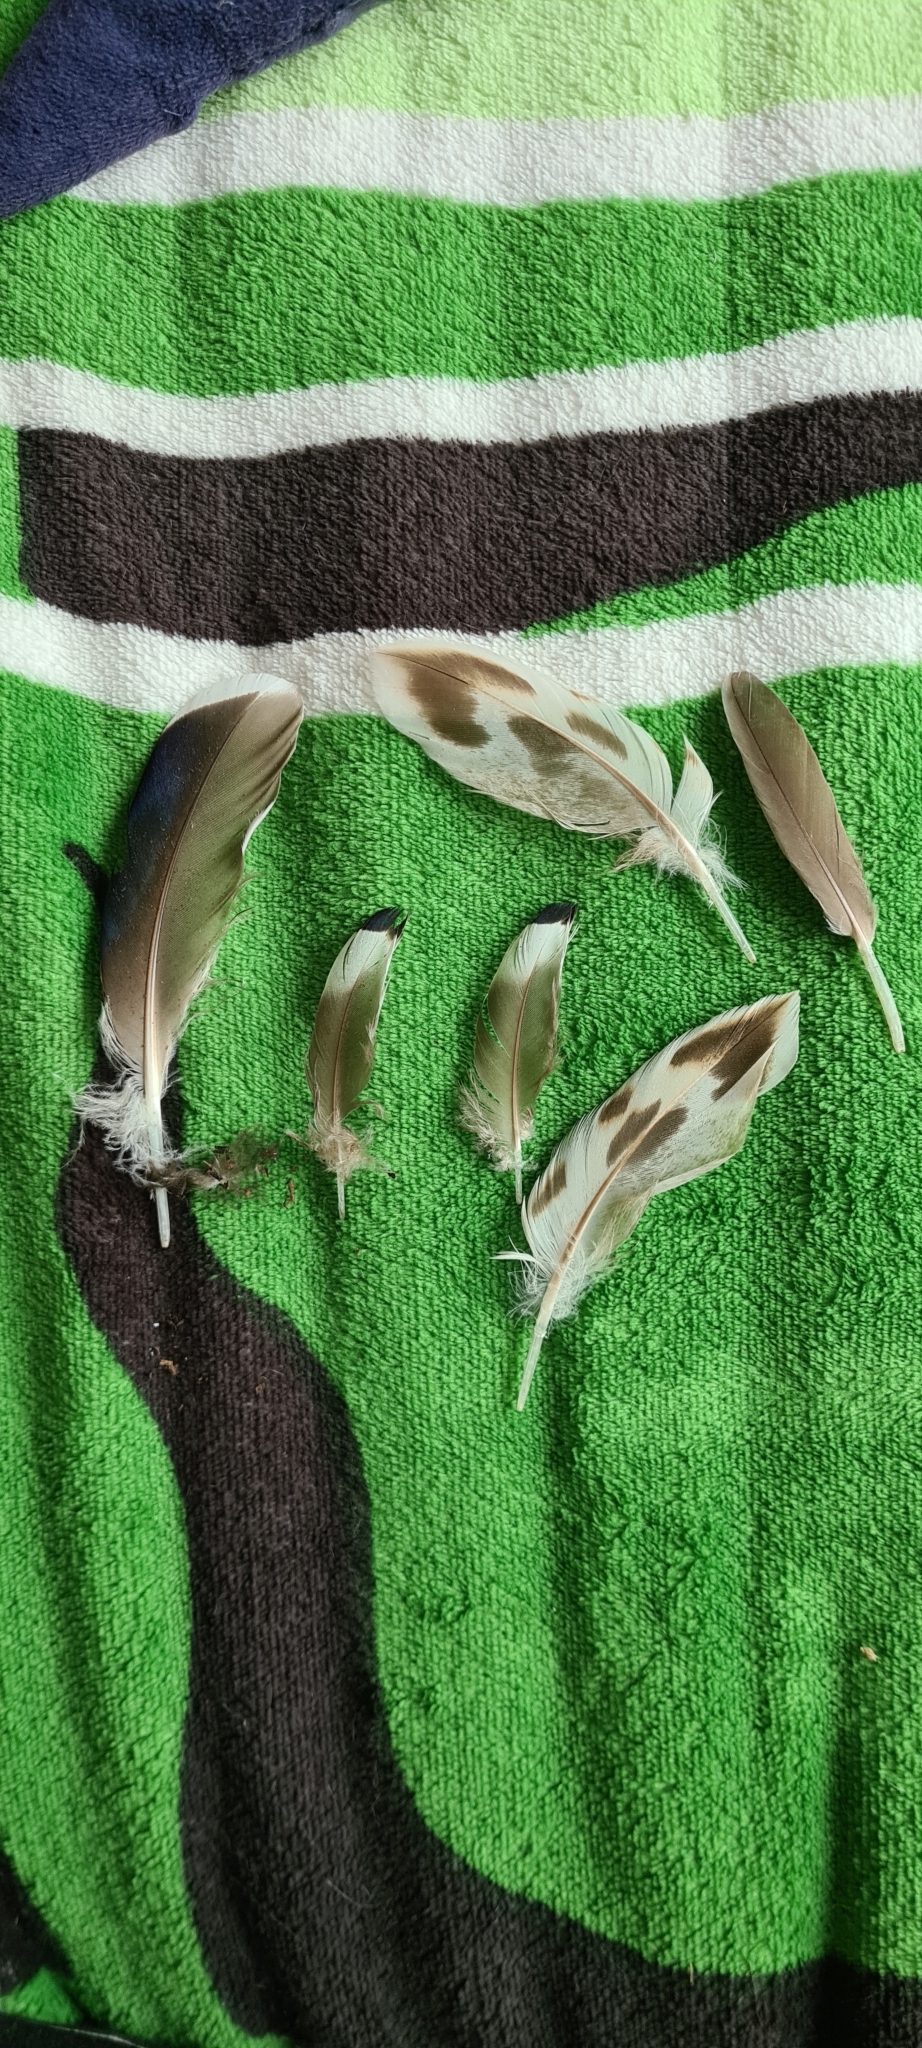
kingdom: Animalia
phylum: Chordata
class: Aves
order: Anseriformes
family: Anatidae
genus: Anas
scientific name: Anas platyrhynchos
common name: Mallard
